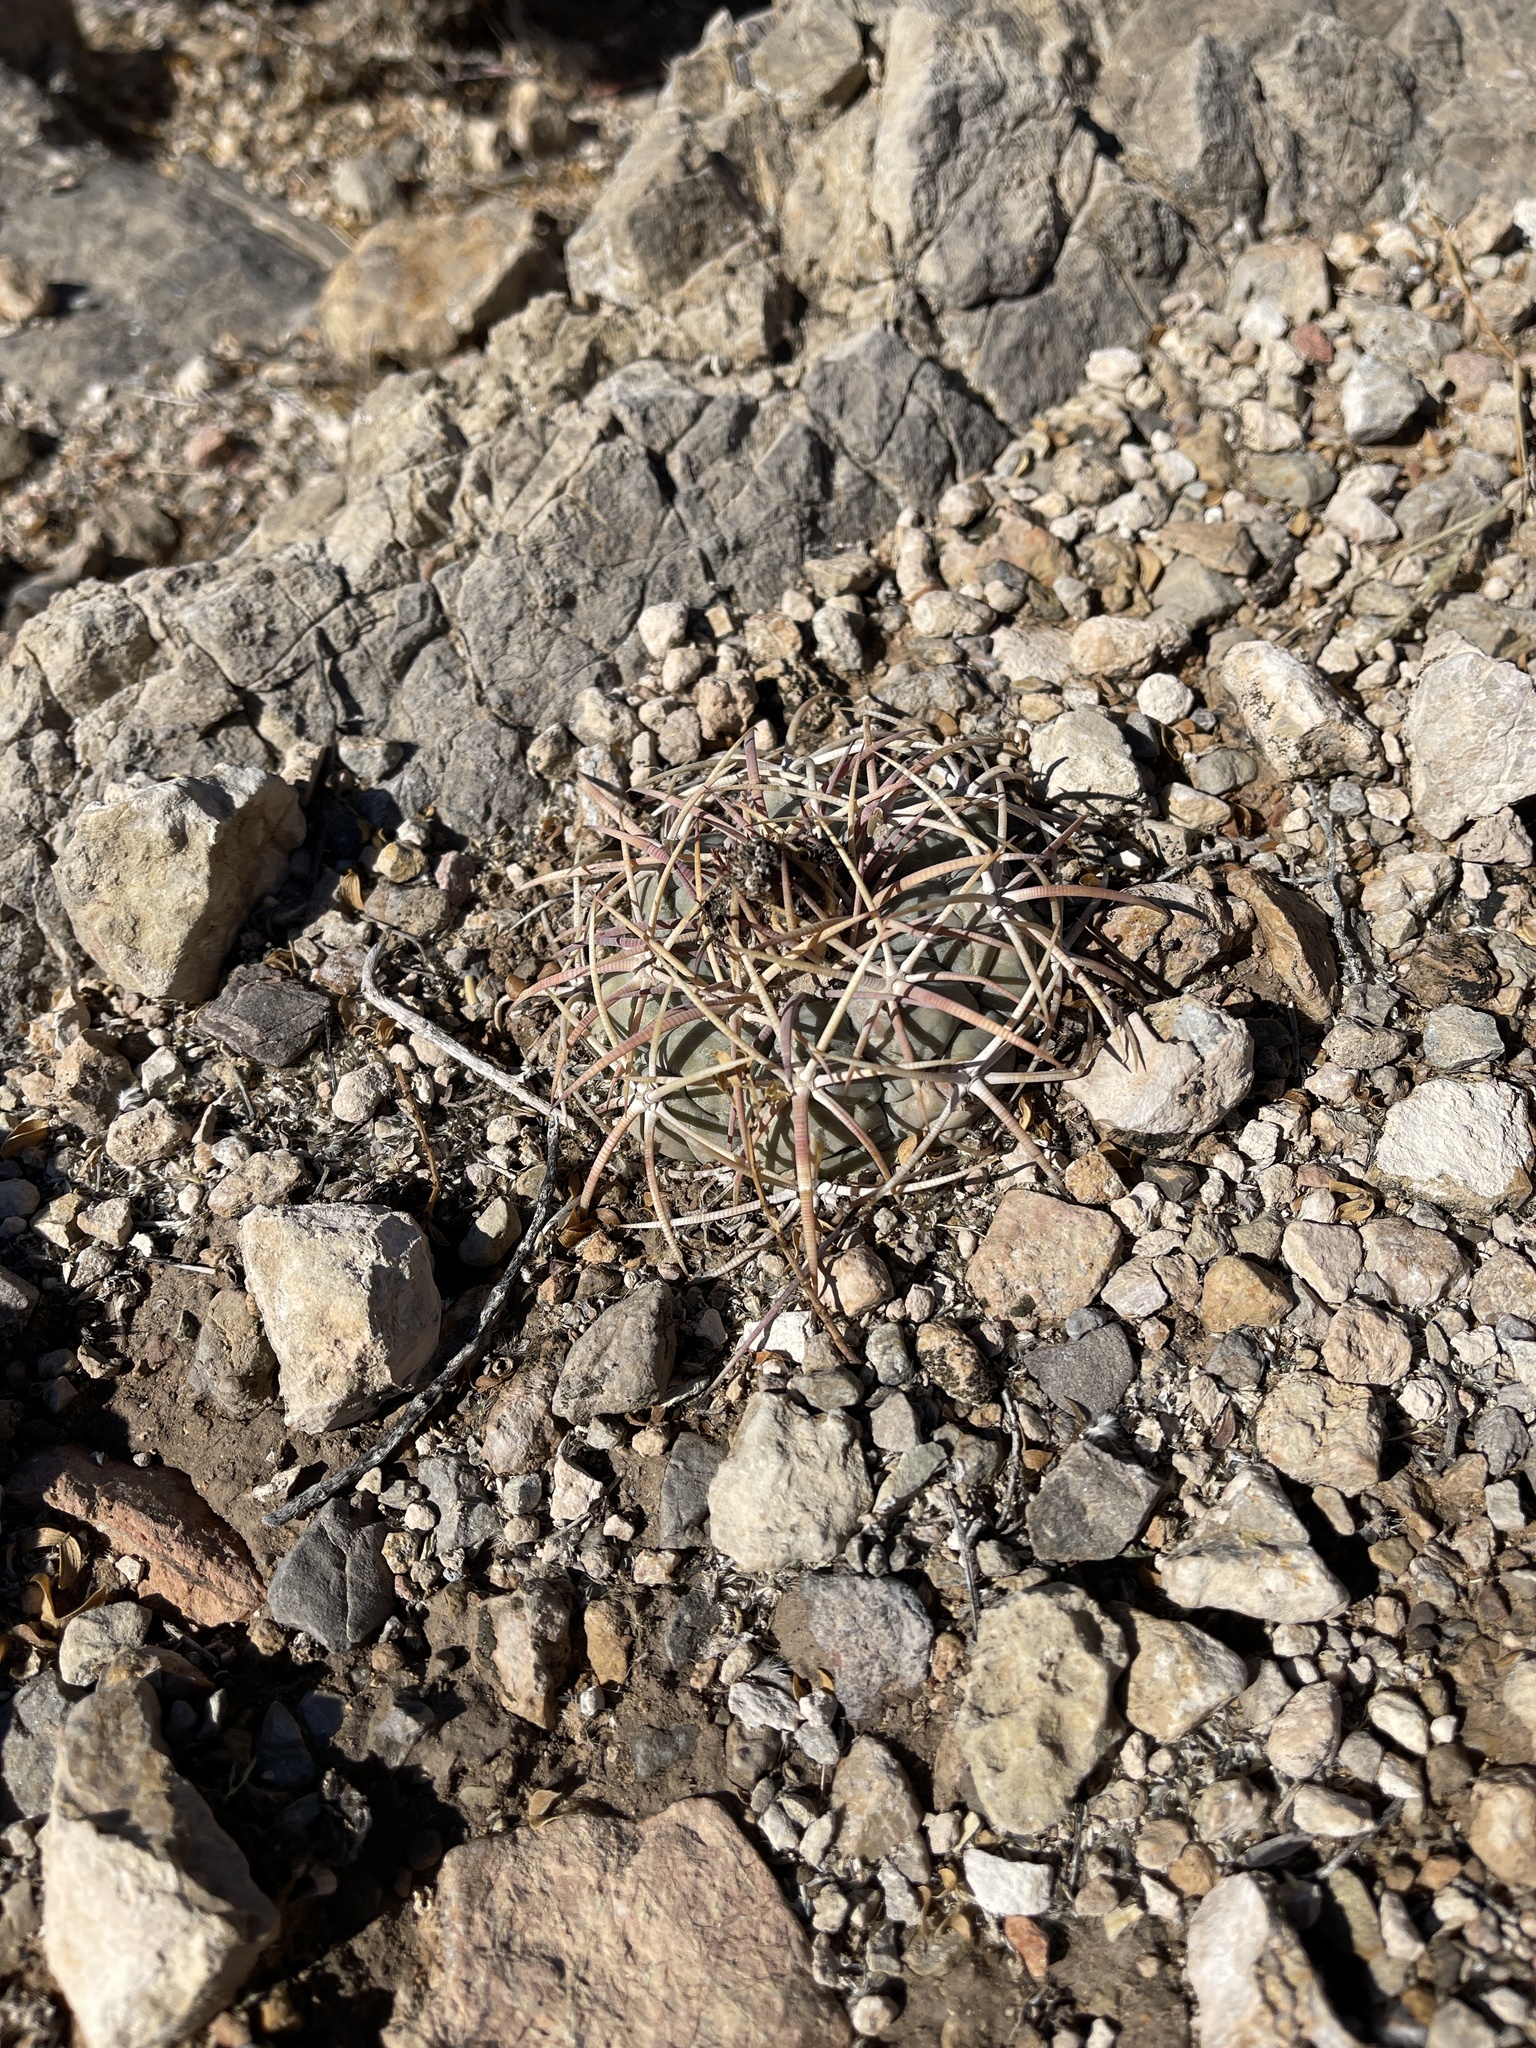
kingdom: Plantae
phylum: Tracheophyta
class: Magnoliopsida
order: Caryophyllales
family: Cactaceae
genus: Echinocactus
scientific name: Echinocactus horizonthalonius
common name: Devilshead
